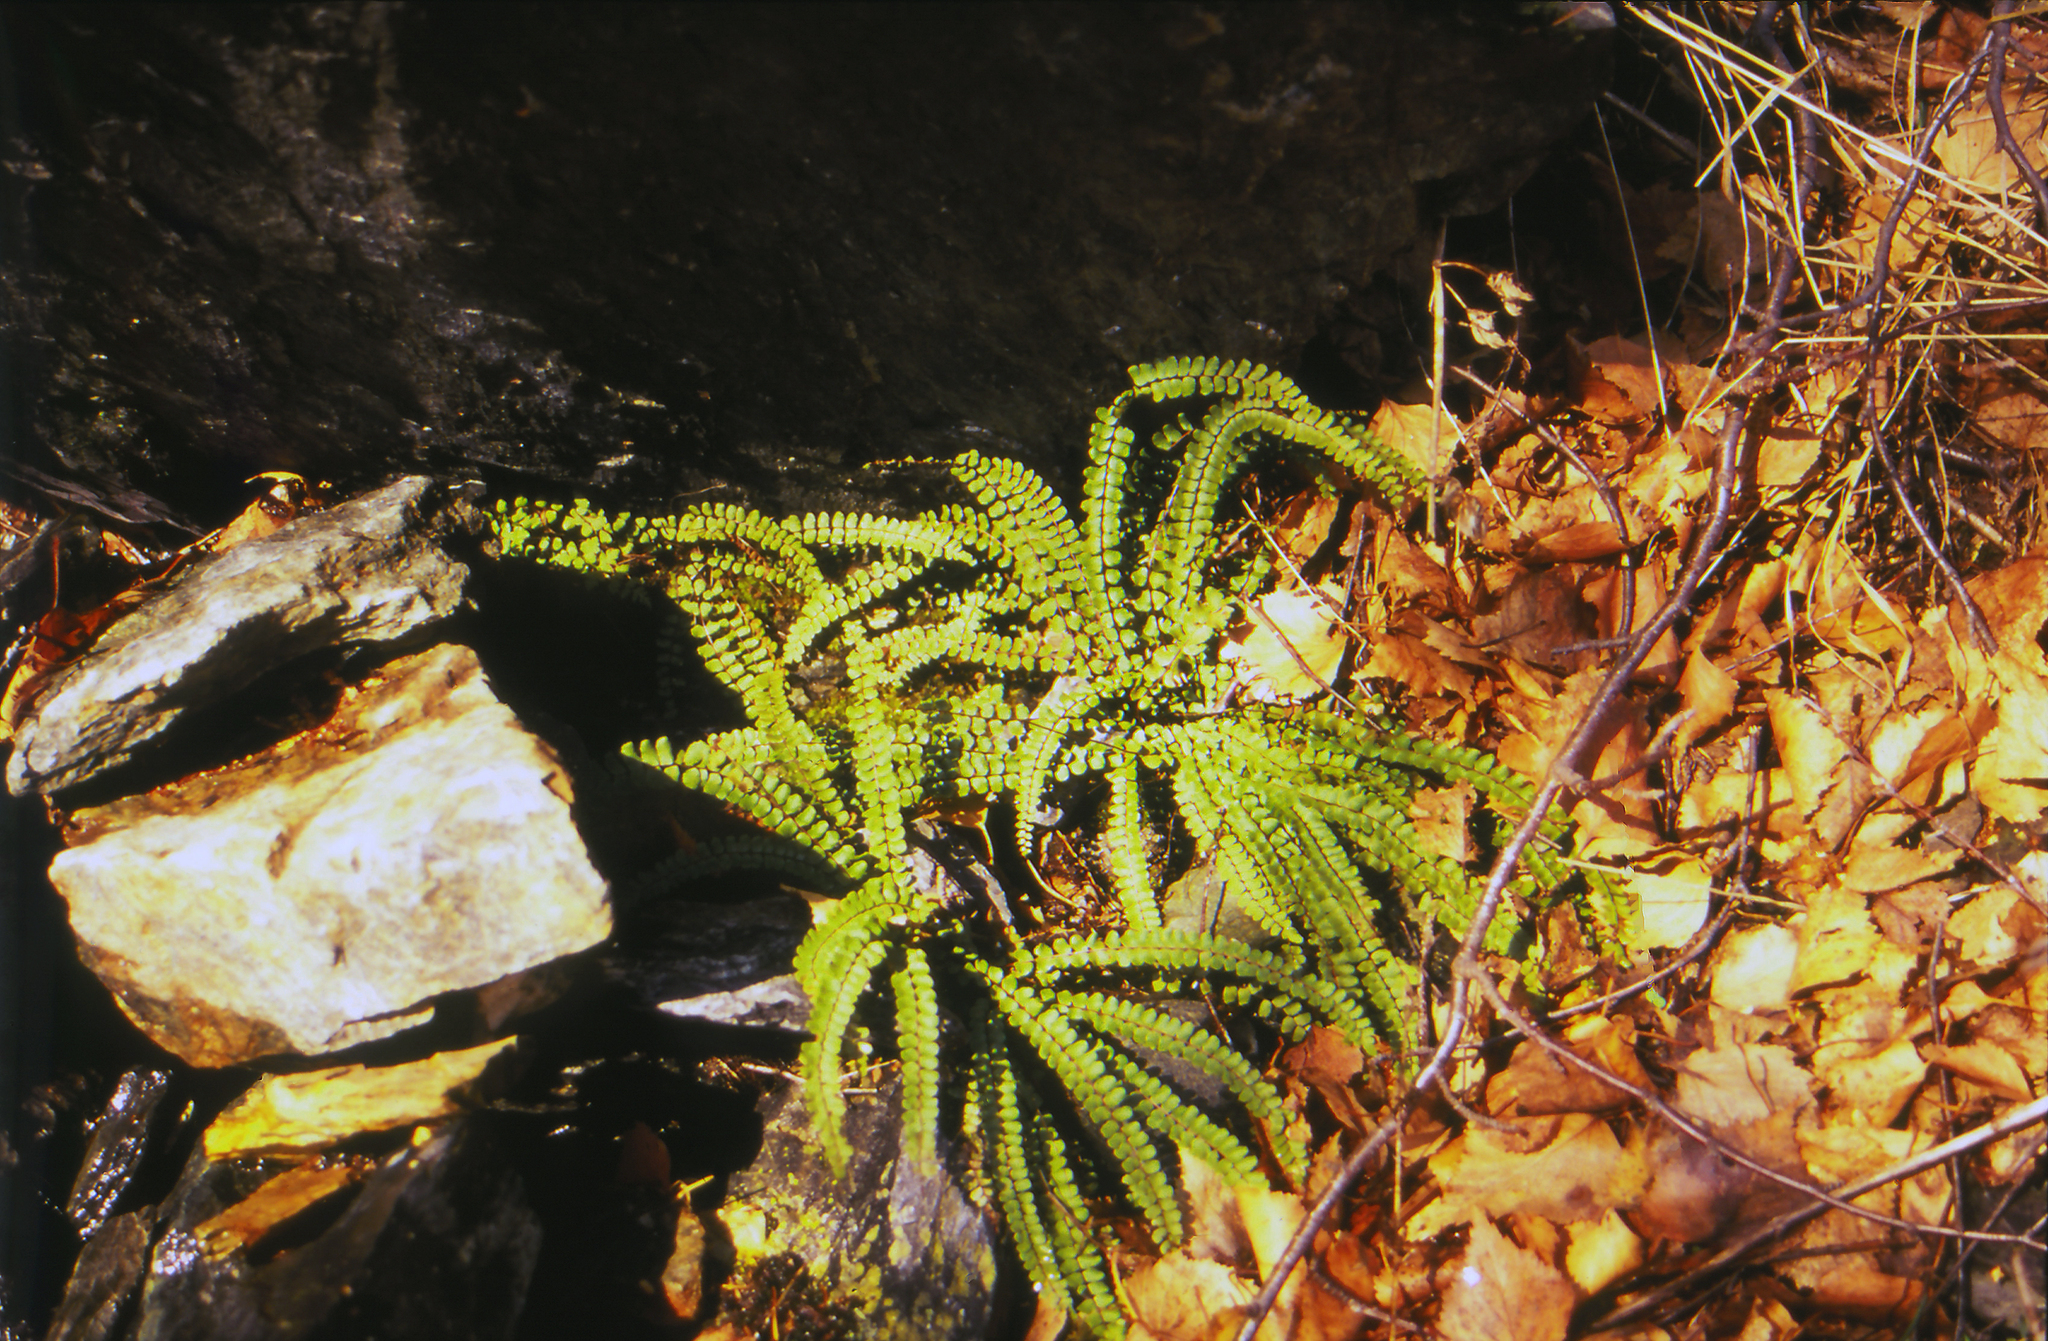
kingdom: Plantae
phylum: Tracheophyta
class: Polypodiopsida
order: Polypodiales
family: Aspleniaceae
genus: Asplenium
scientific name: Asplenium trichomanes
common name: Maidenhair spleenwort
